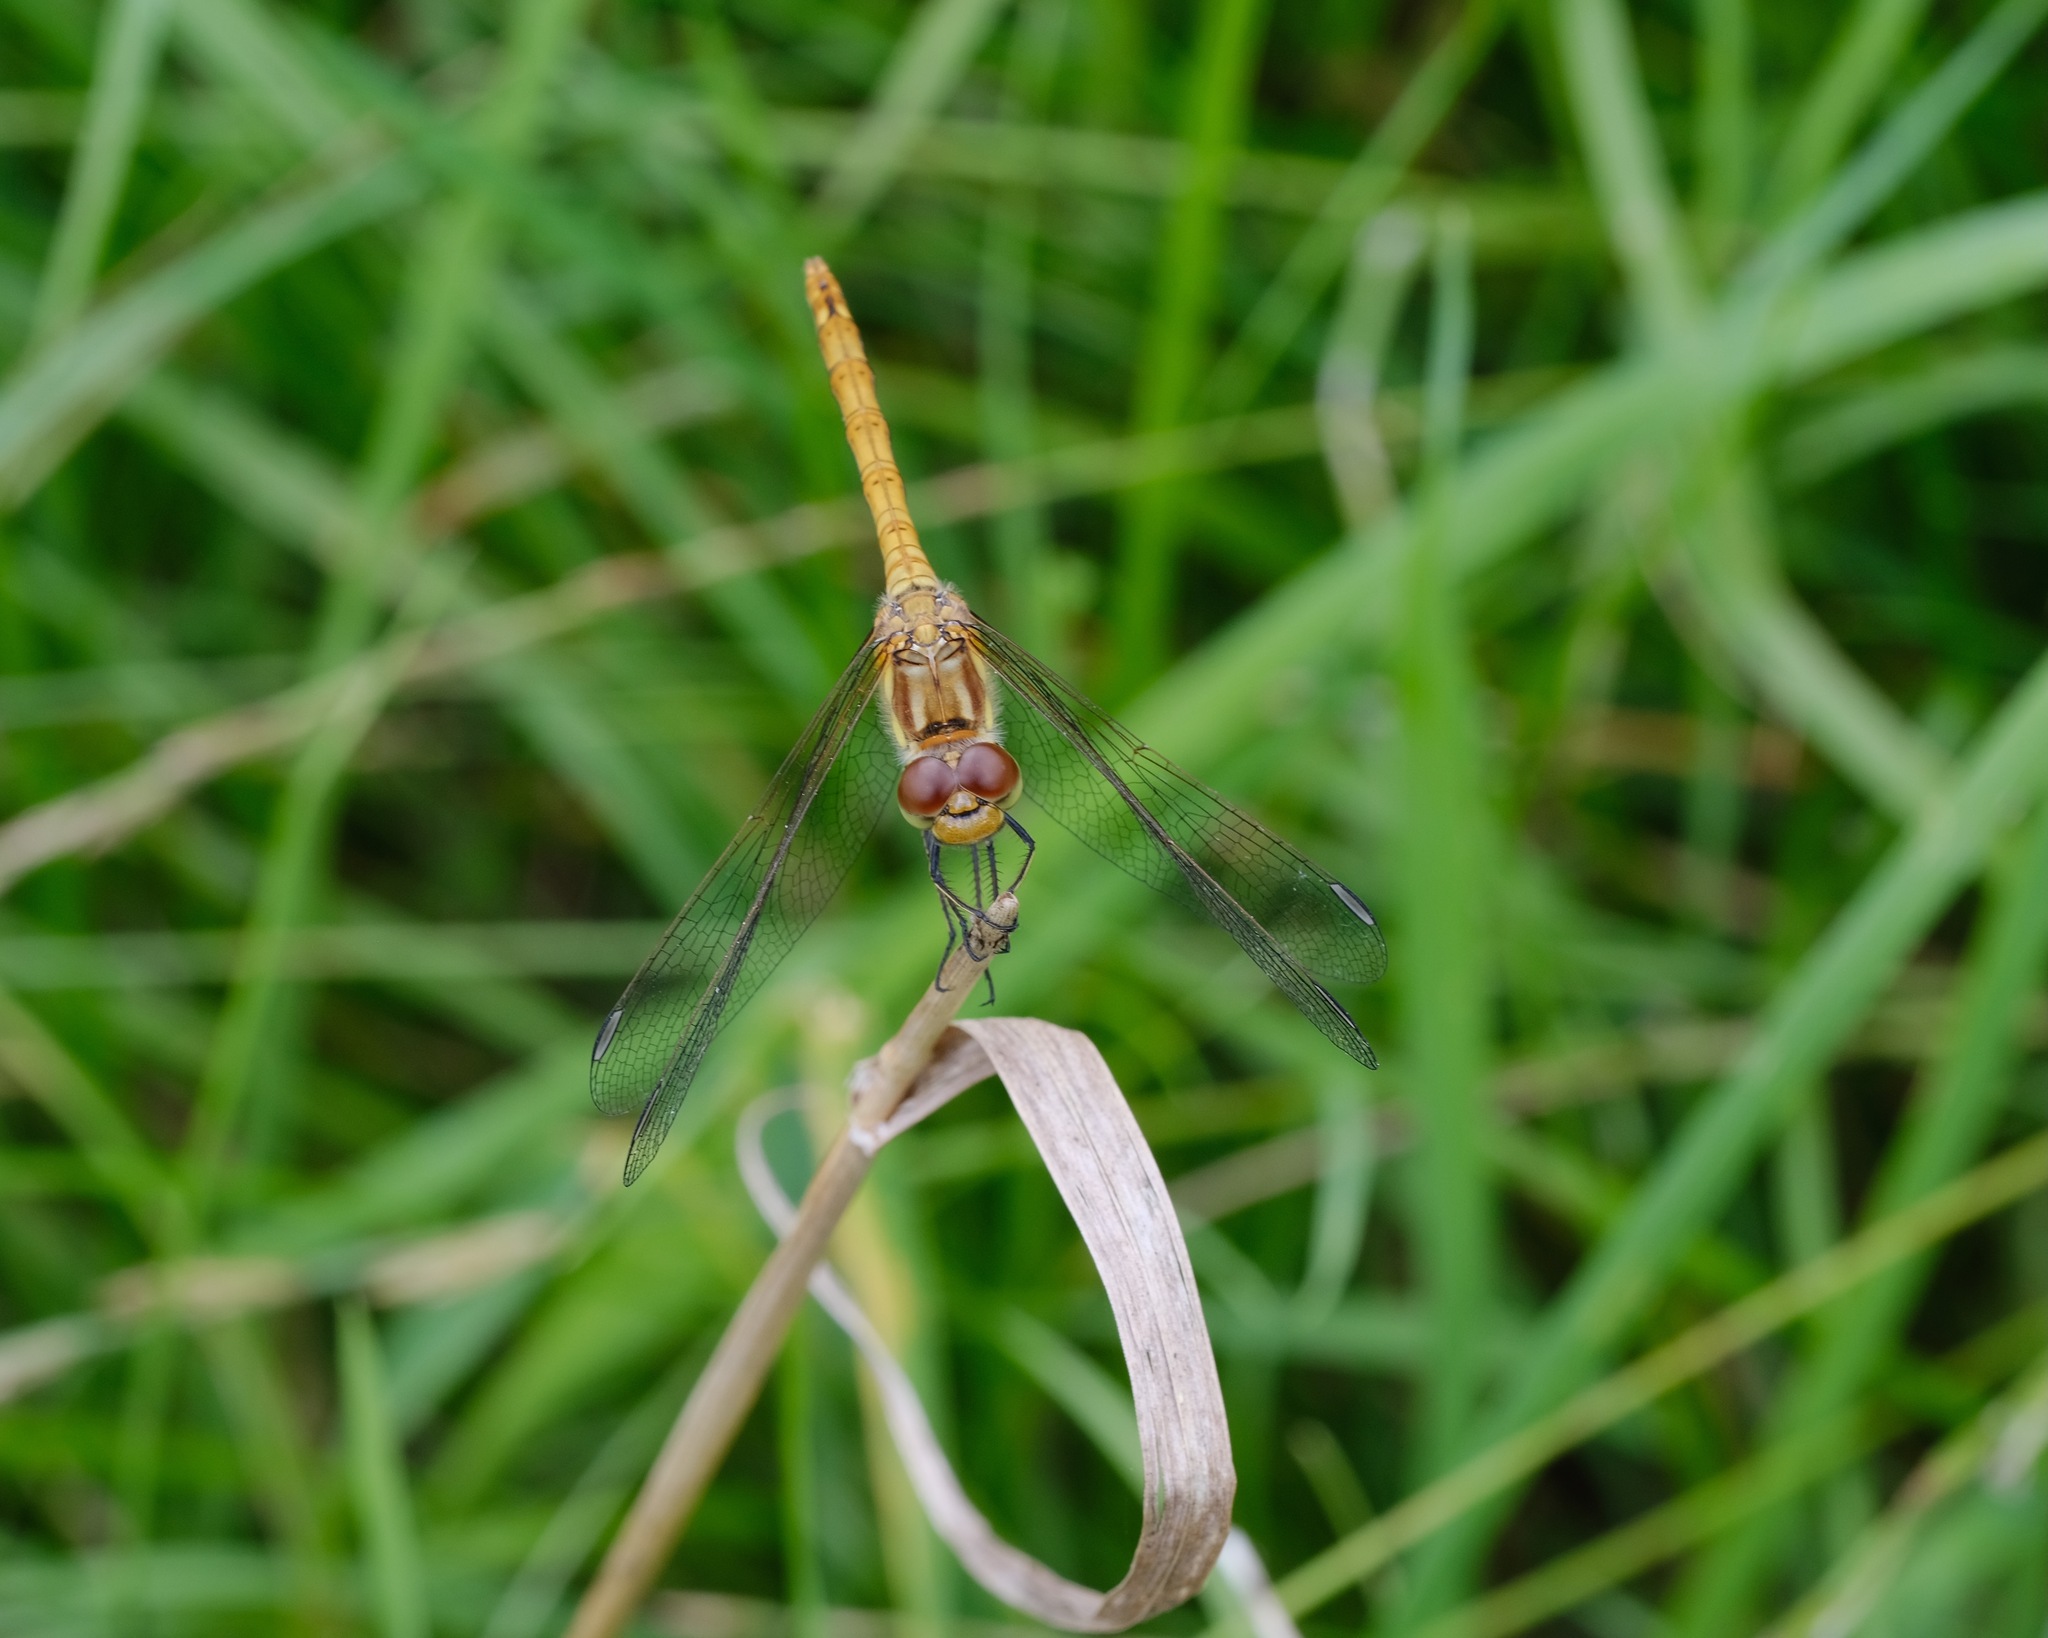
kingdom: Animalia
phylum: Arthropoda
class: Insecta
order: Odonata
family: Libellulidae
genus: Sympetrum
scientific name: Sympetrum striolatum
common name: Common darter
